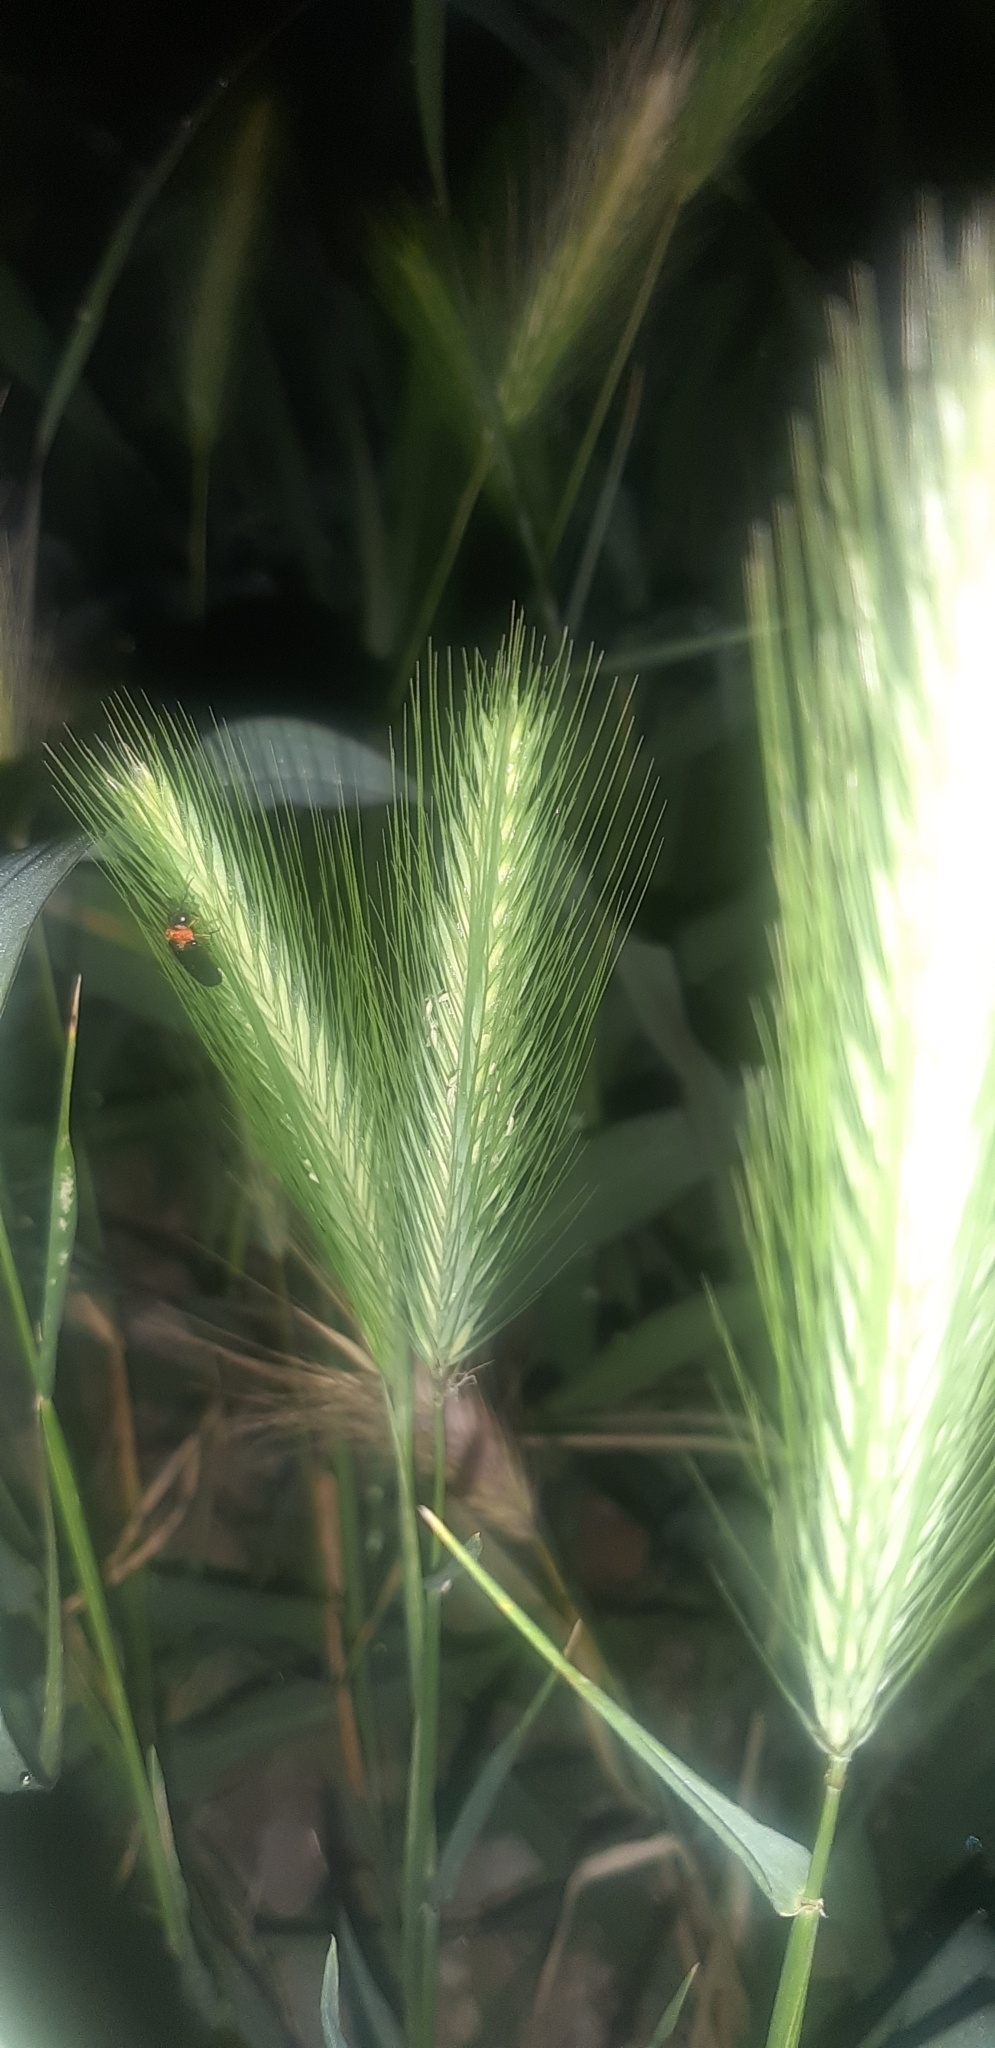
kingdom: Plantae
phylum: Tracheophyta
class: Liliopsida
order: Poales
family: Poaceae
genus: Hordeum
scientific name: Hordeum murinum
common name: Wall barley
